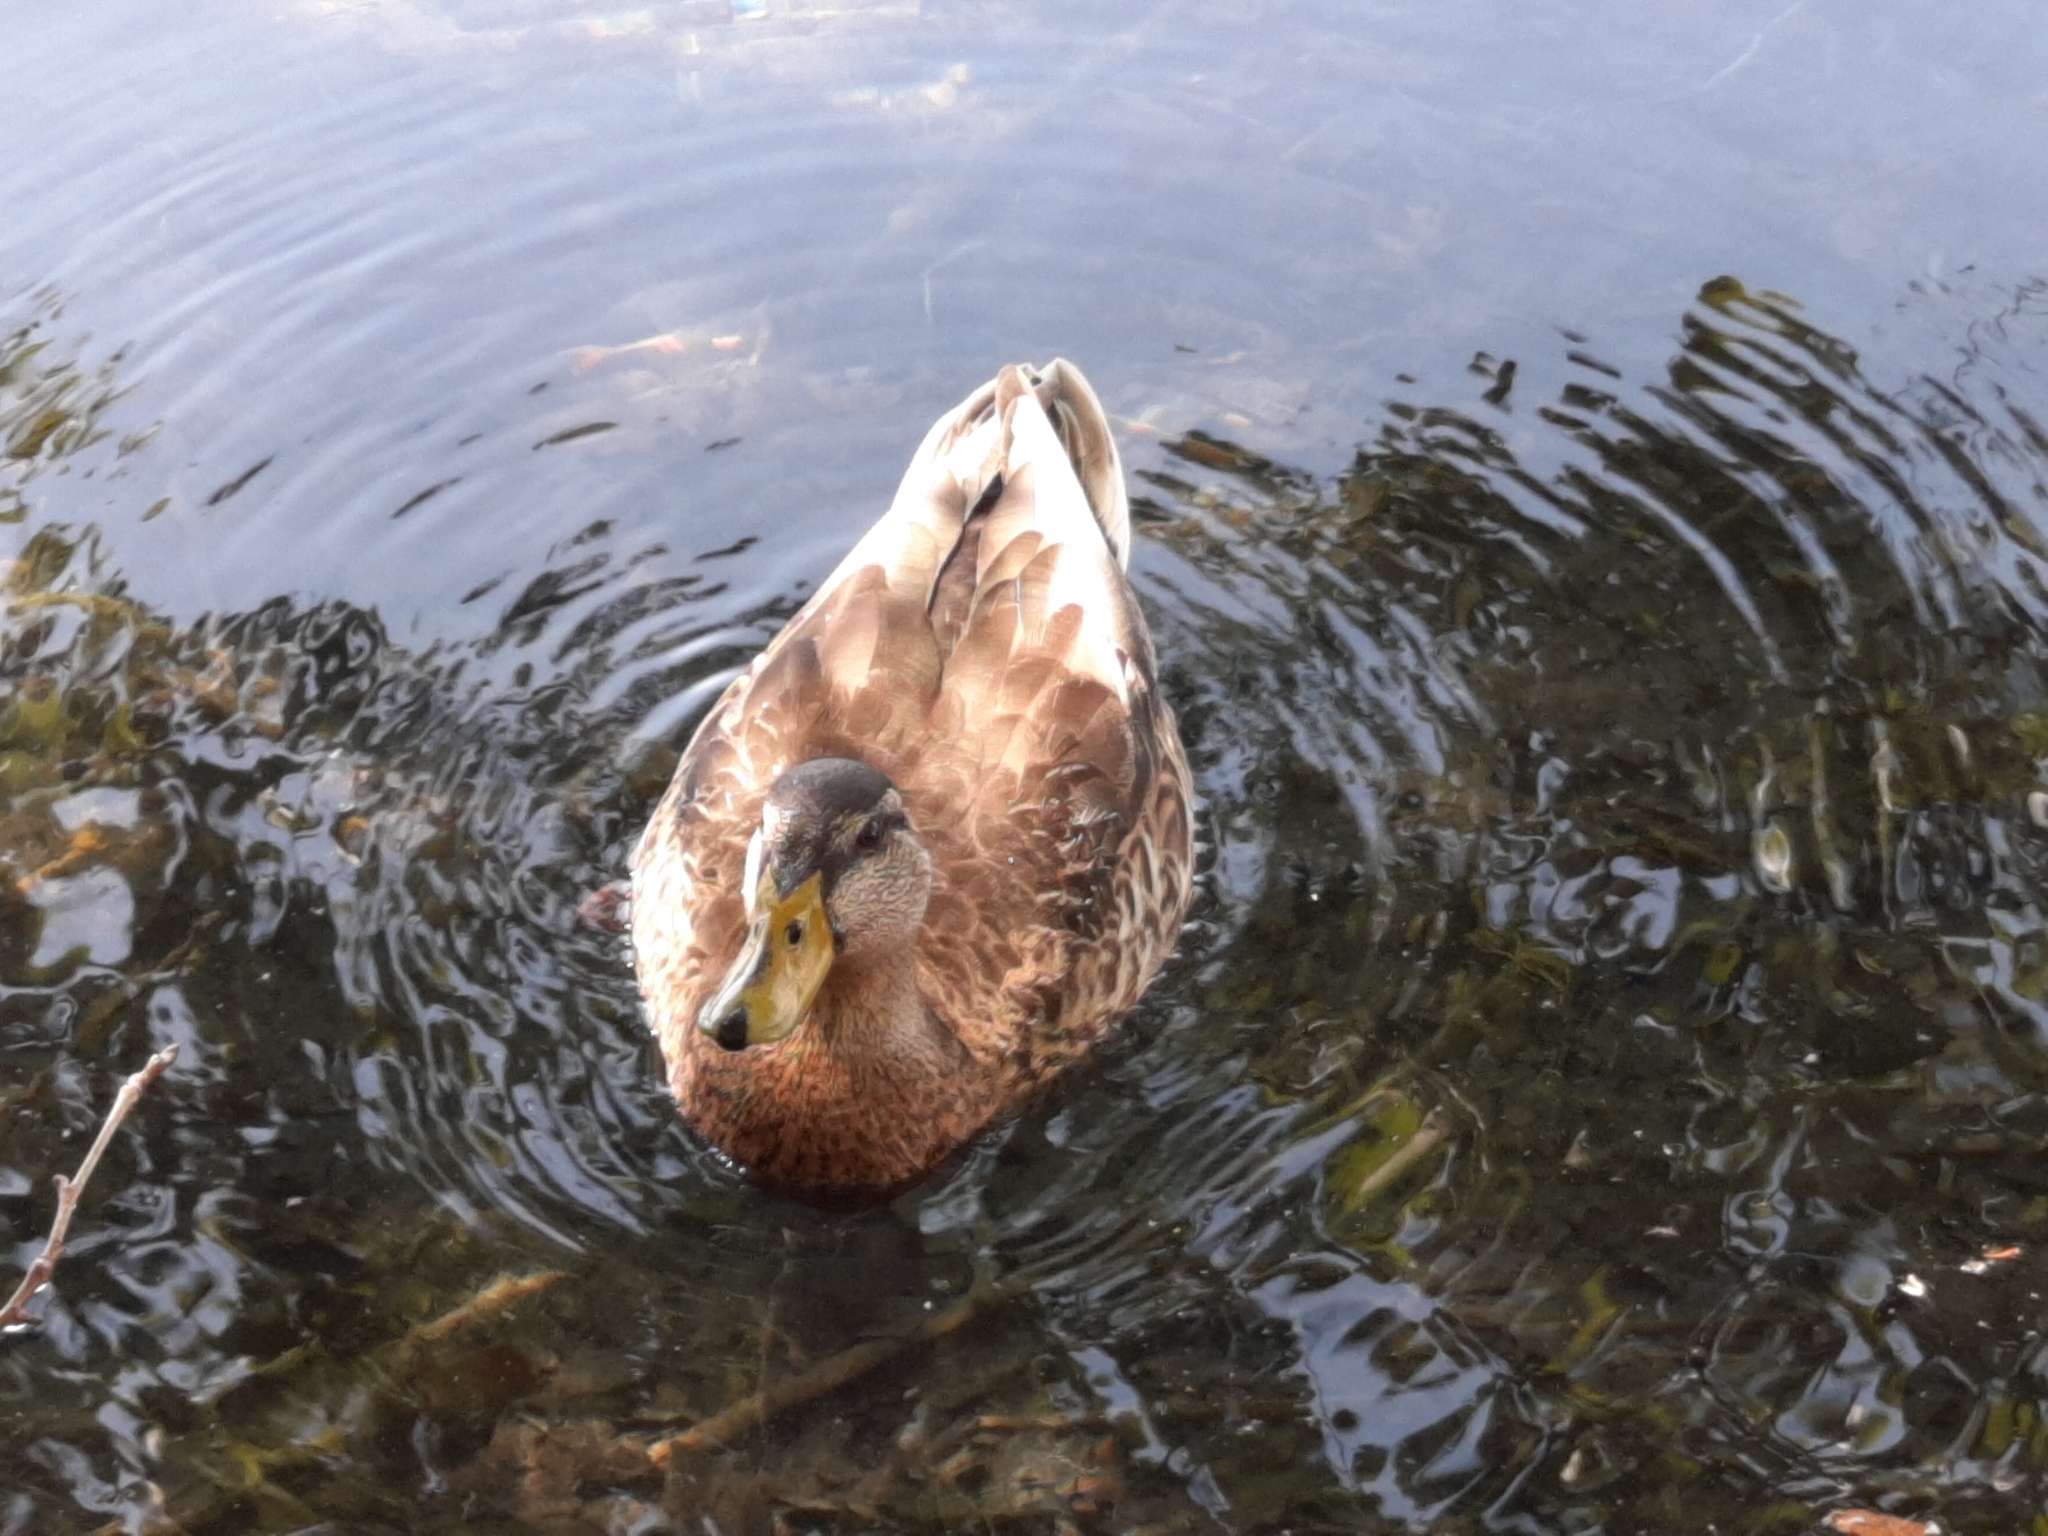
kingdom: Animalia
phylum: Chordata
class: Aves
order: Anseriformes
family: Anatidae
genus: Anas
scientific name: Anas platyrhynchos
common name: Mallard
